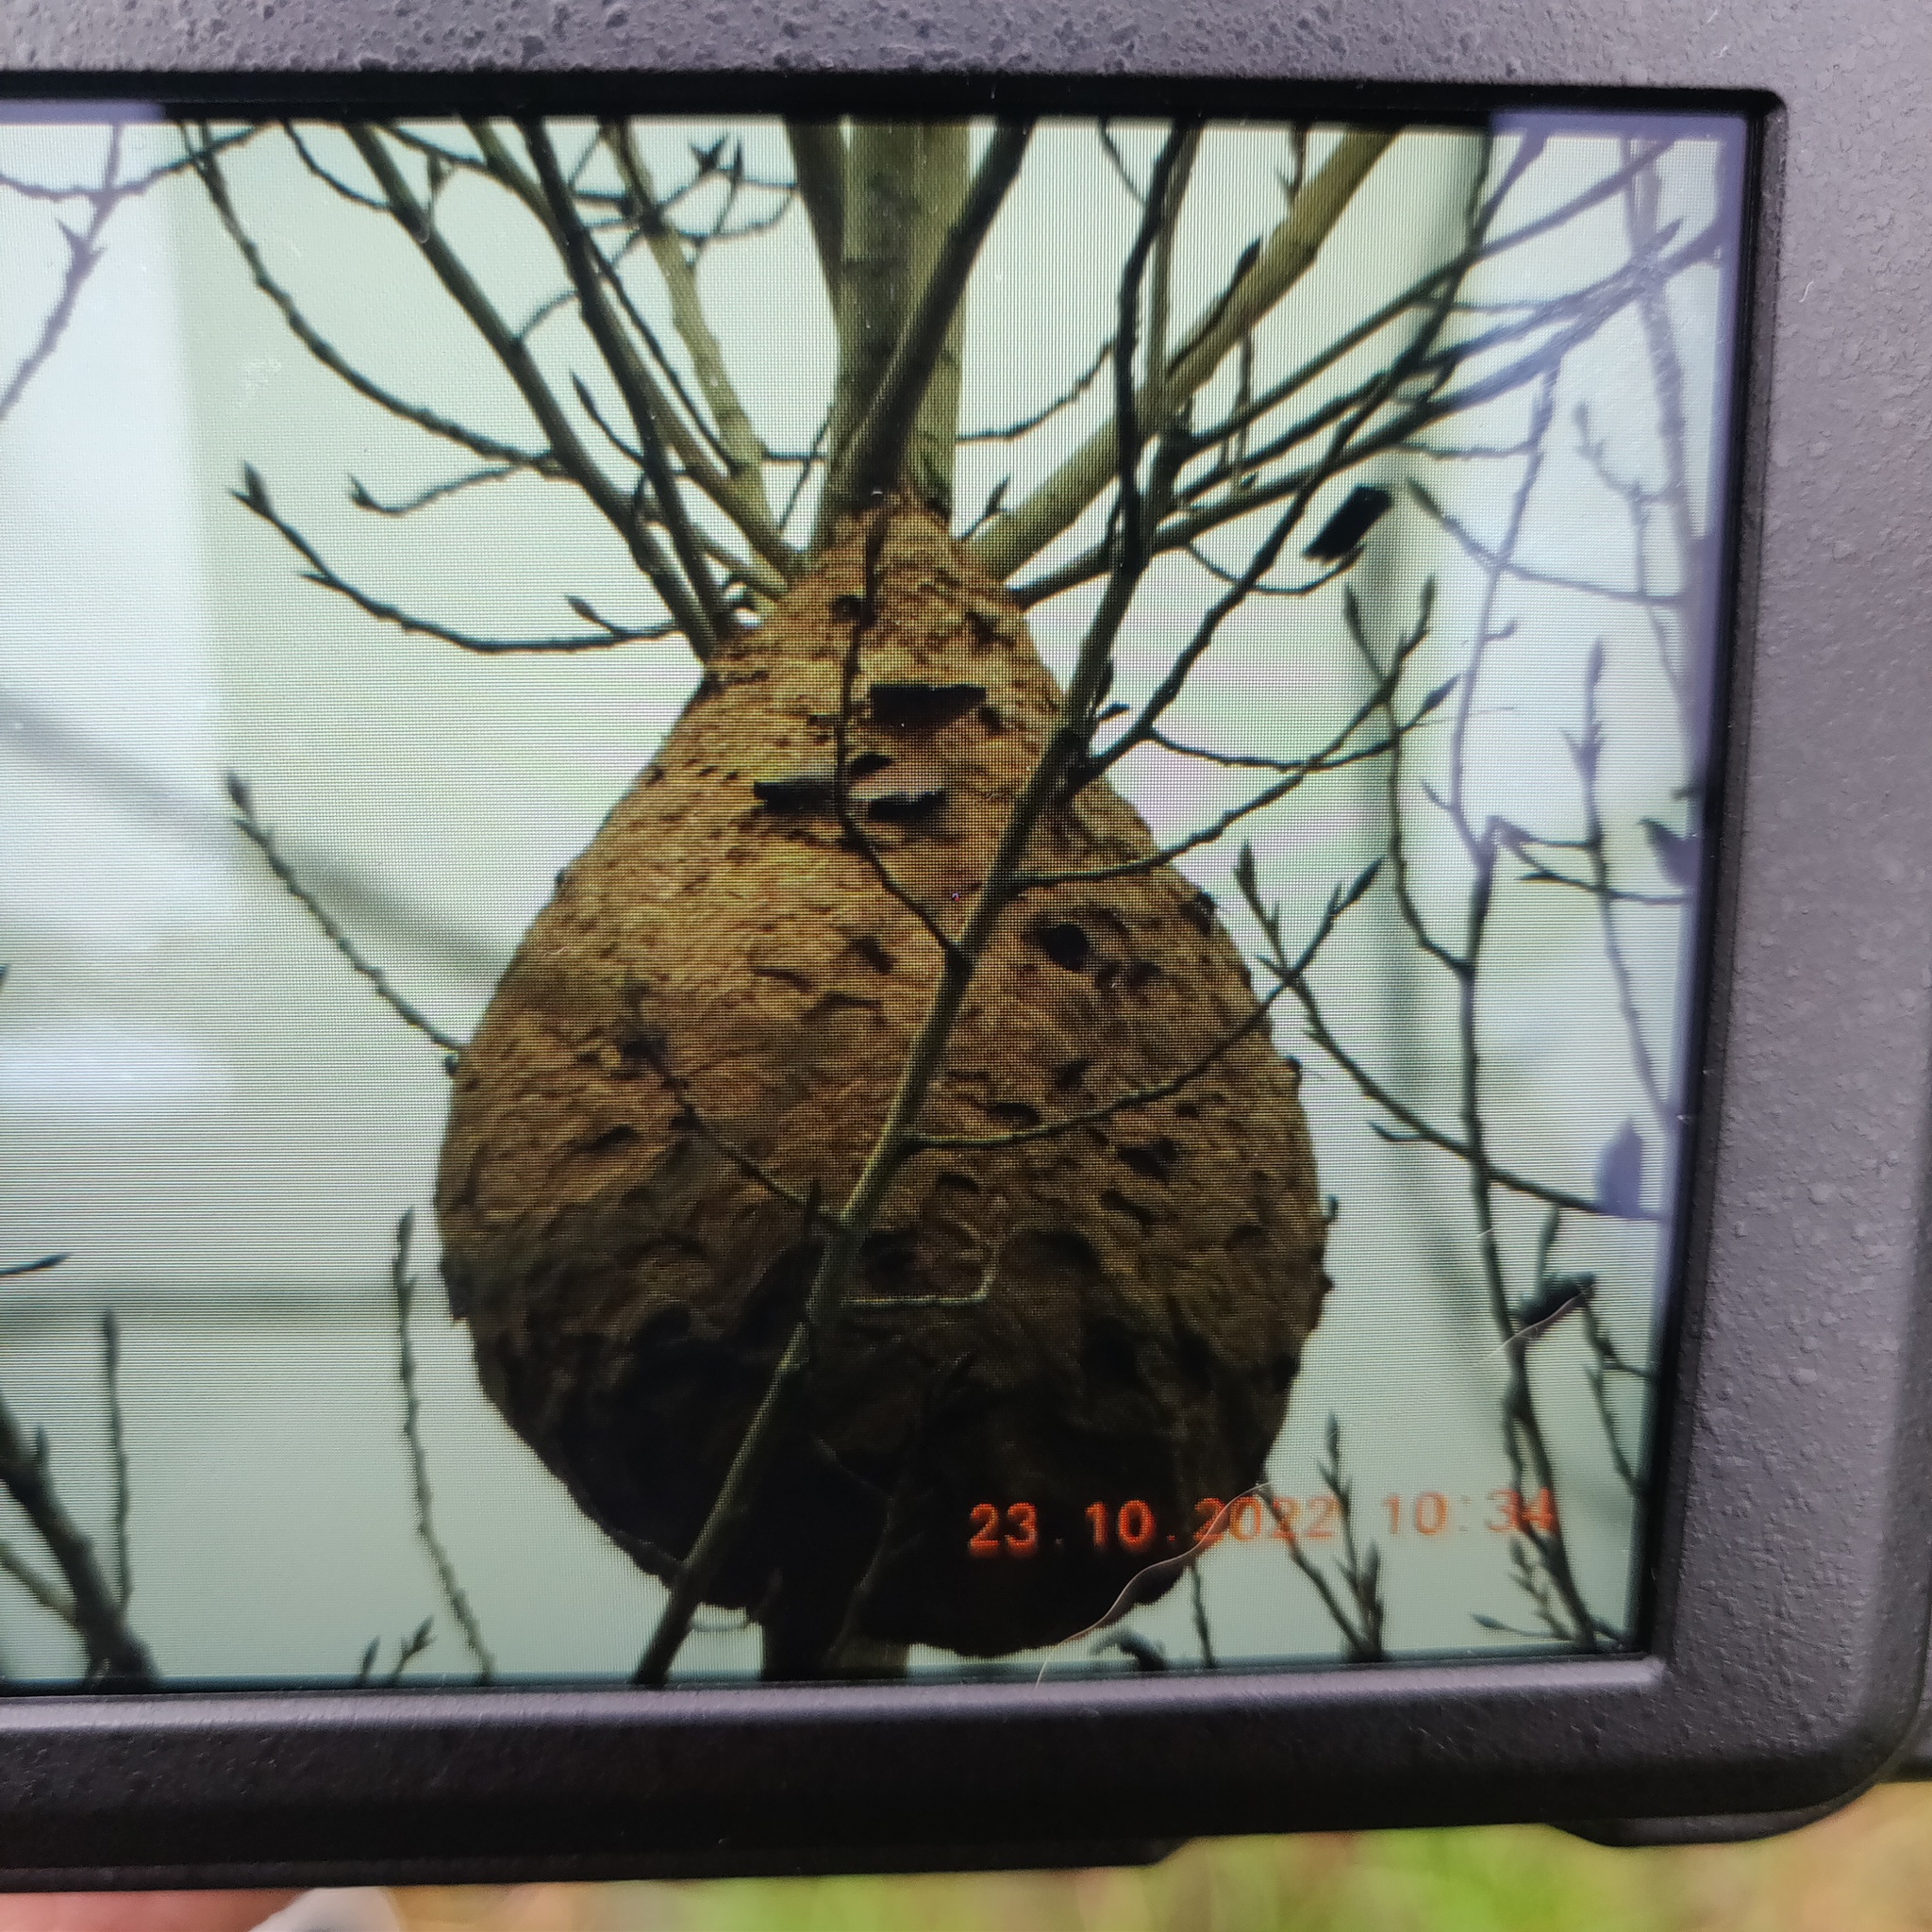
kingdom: Animalia
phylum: Arthropoda
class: Insecta
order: Hymenoptera
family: Vespidae
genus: Vespa
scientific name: Vespa velutina
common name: Asian hornet
